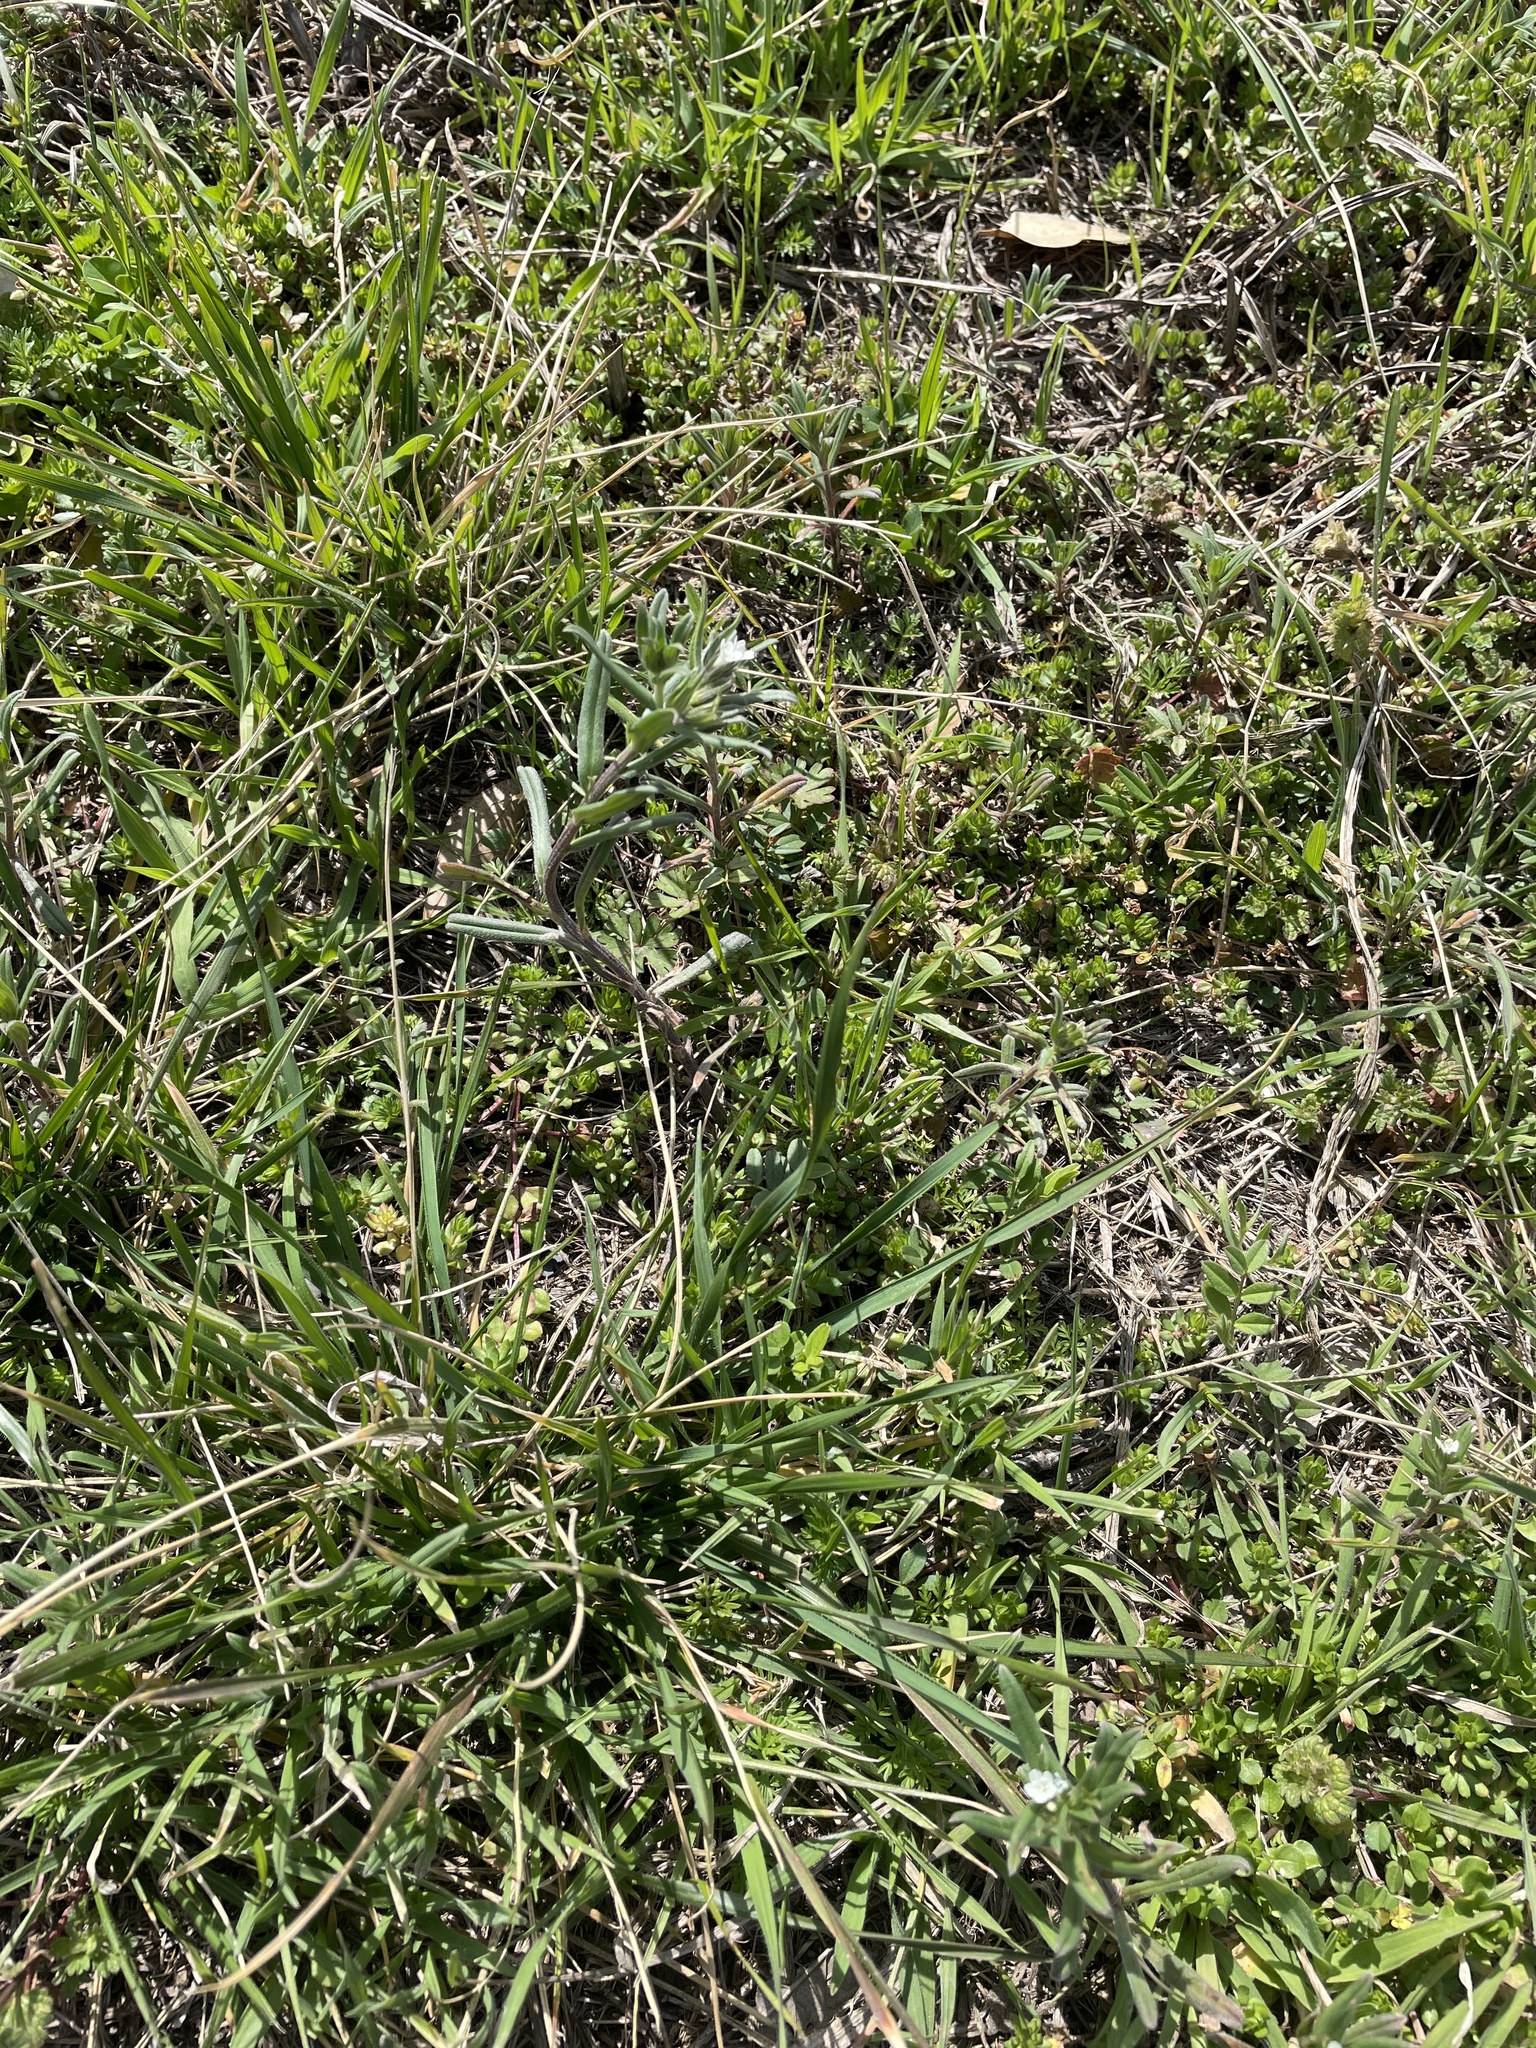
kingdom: Plantae
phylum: Tracheophyta
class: Magnoliopsida
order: Boraginales
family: Boraginaceae
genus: Buglossoides
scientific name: Buglossoides arvensis
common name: Corn gromwell
